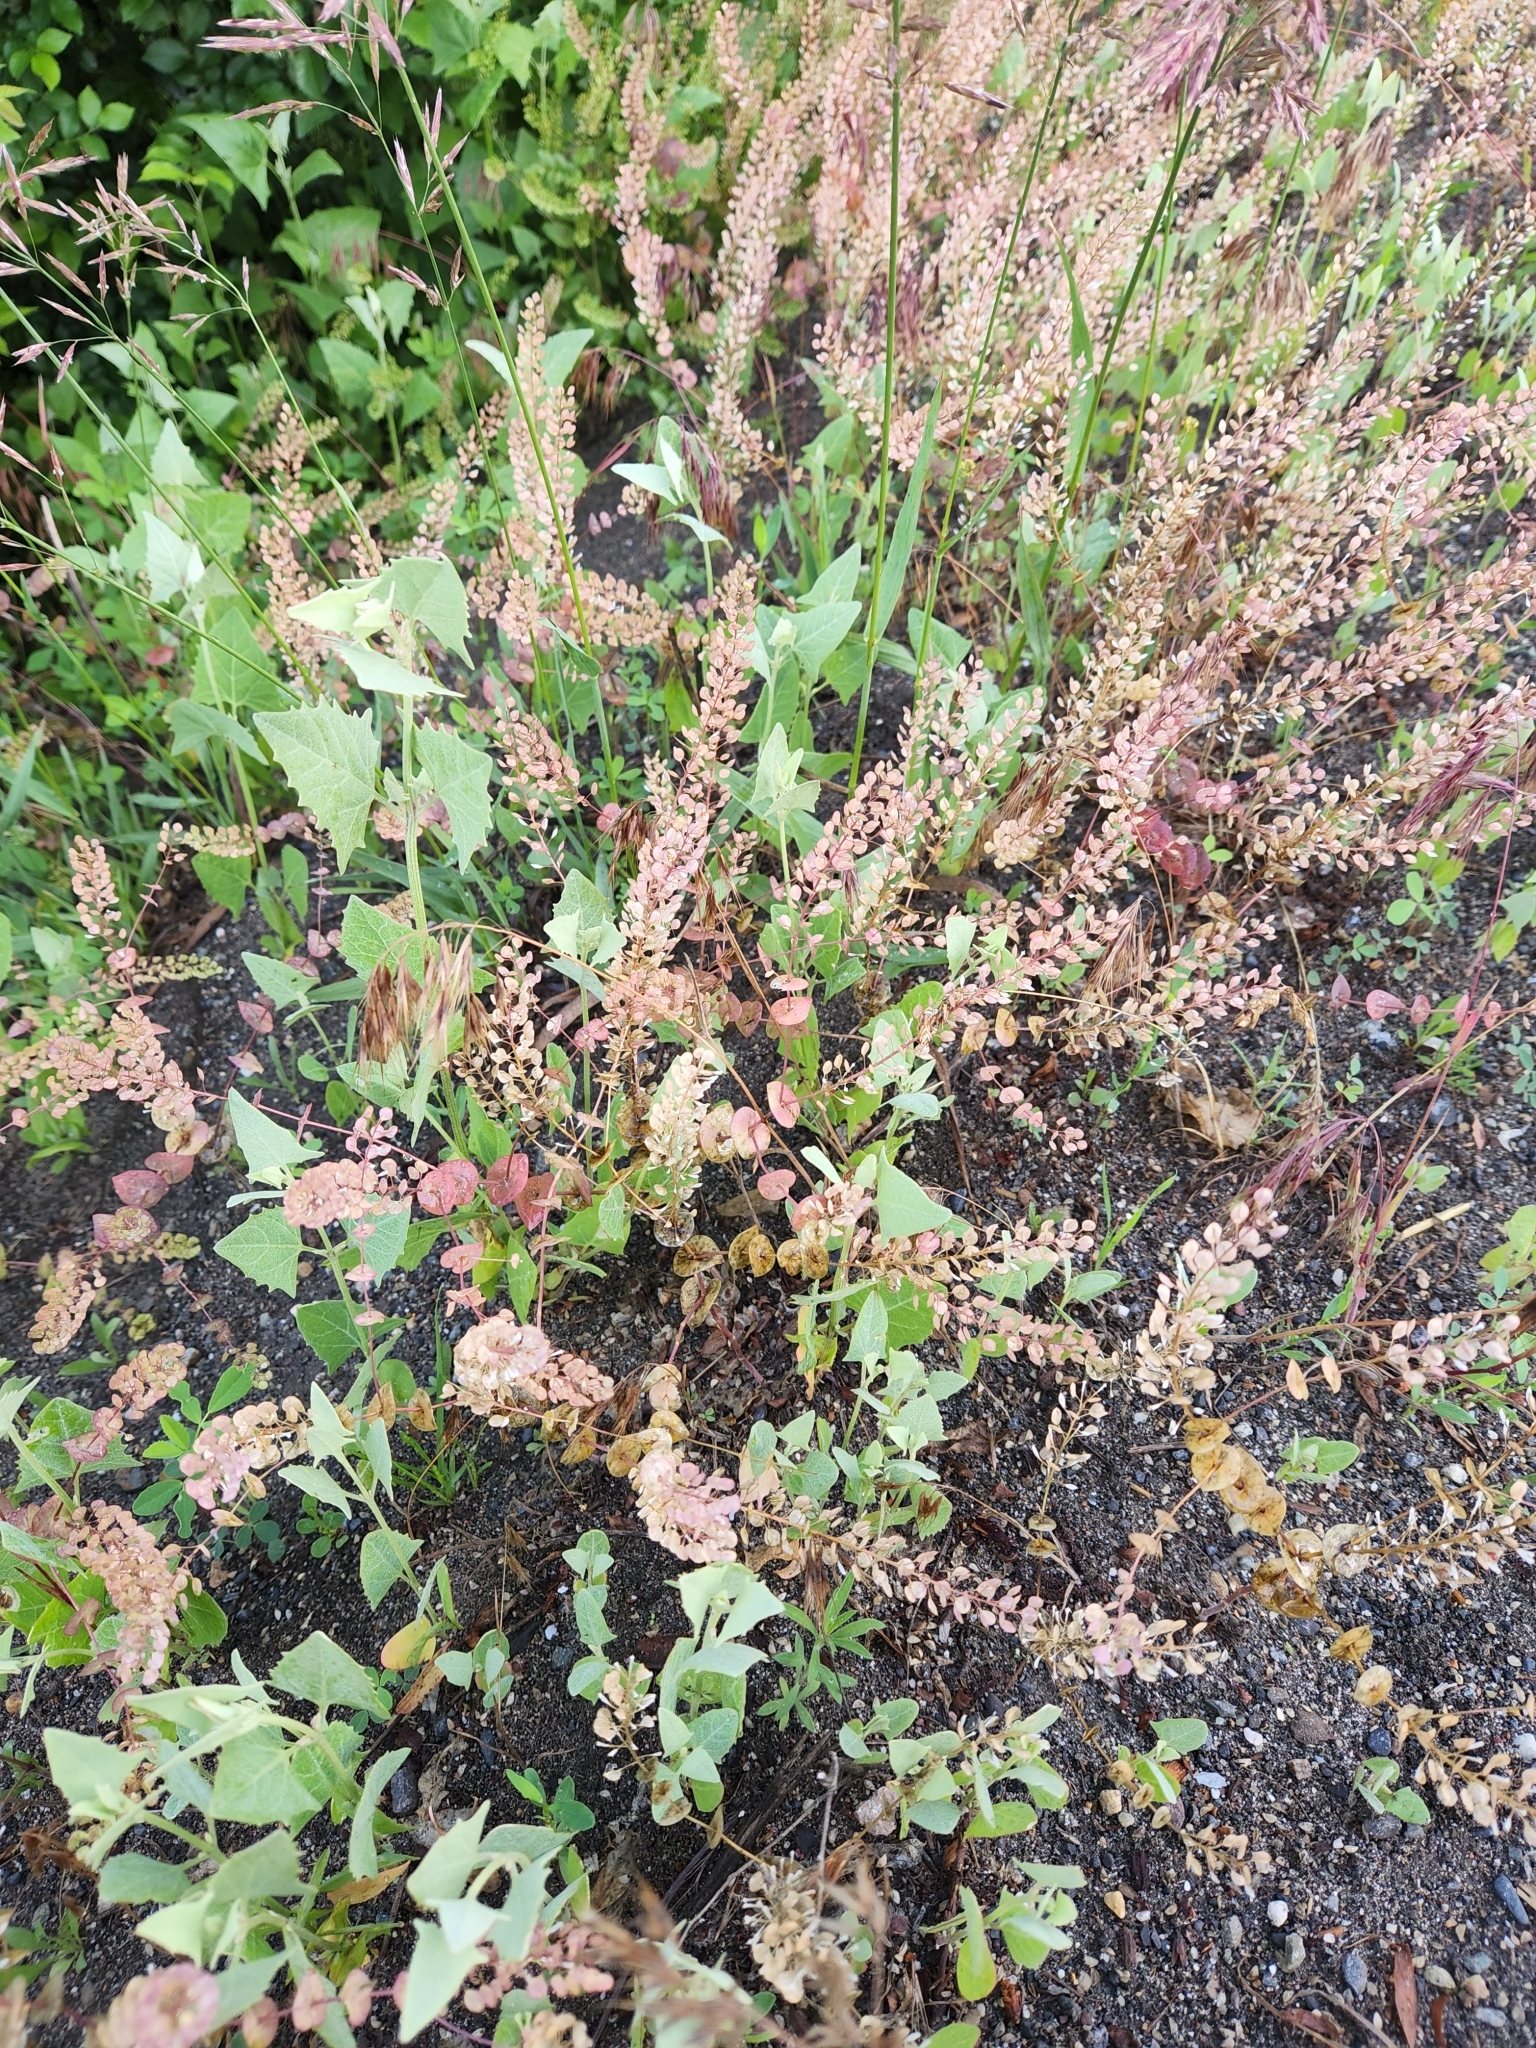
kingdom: Plantae
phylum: Tracheophyta
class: Magnoliopsida
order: Brassicales
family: Brassicaceae
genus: Lepidium
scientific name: Lepidium perfoliatum
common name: Perfoliate pepperwort
